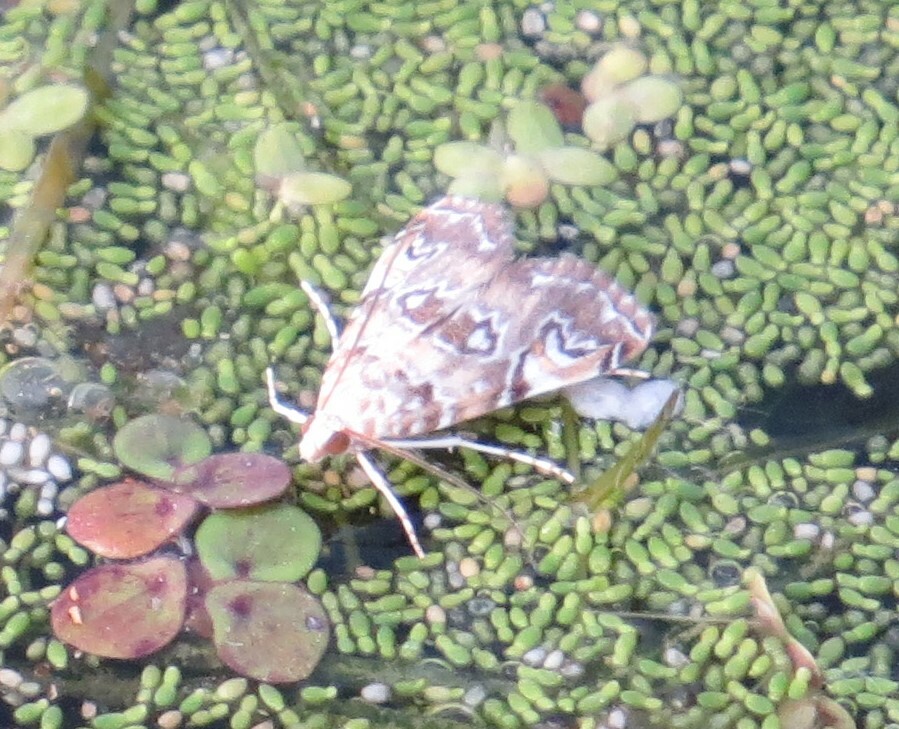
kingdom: Animalia
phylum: Arthropoda
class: Insecta
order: Lepidoptera
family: Crambidae
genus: Elophila
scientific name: Elophila gyralis
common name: Waterlily borer moth
